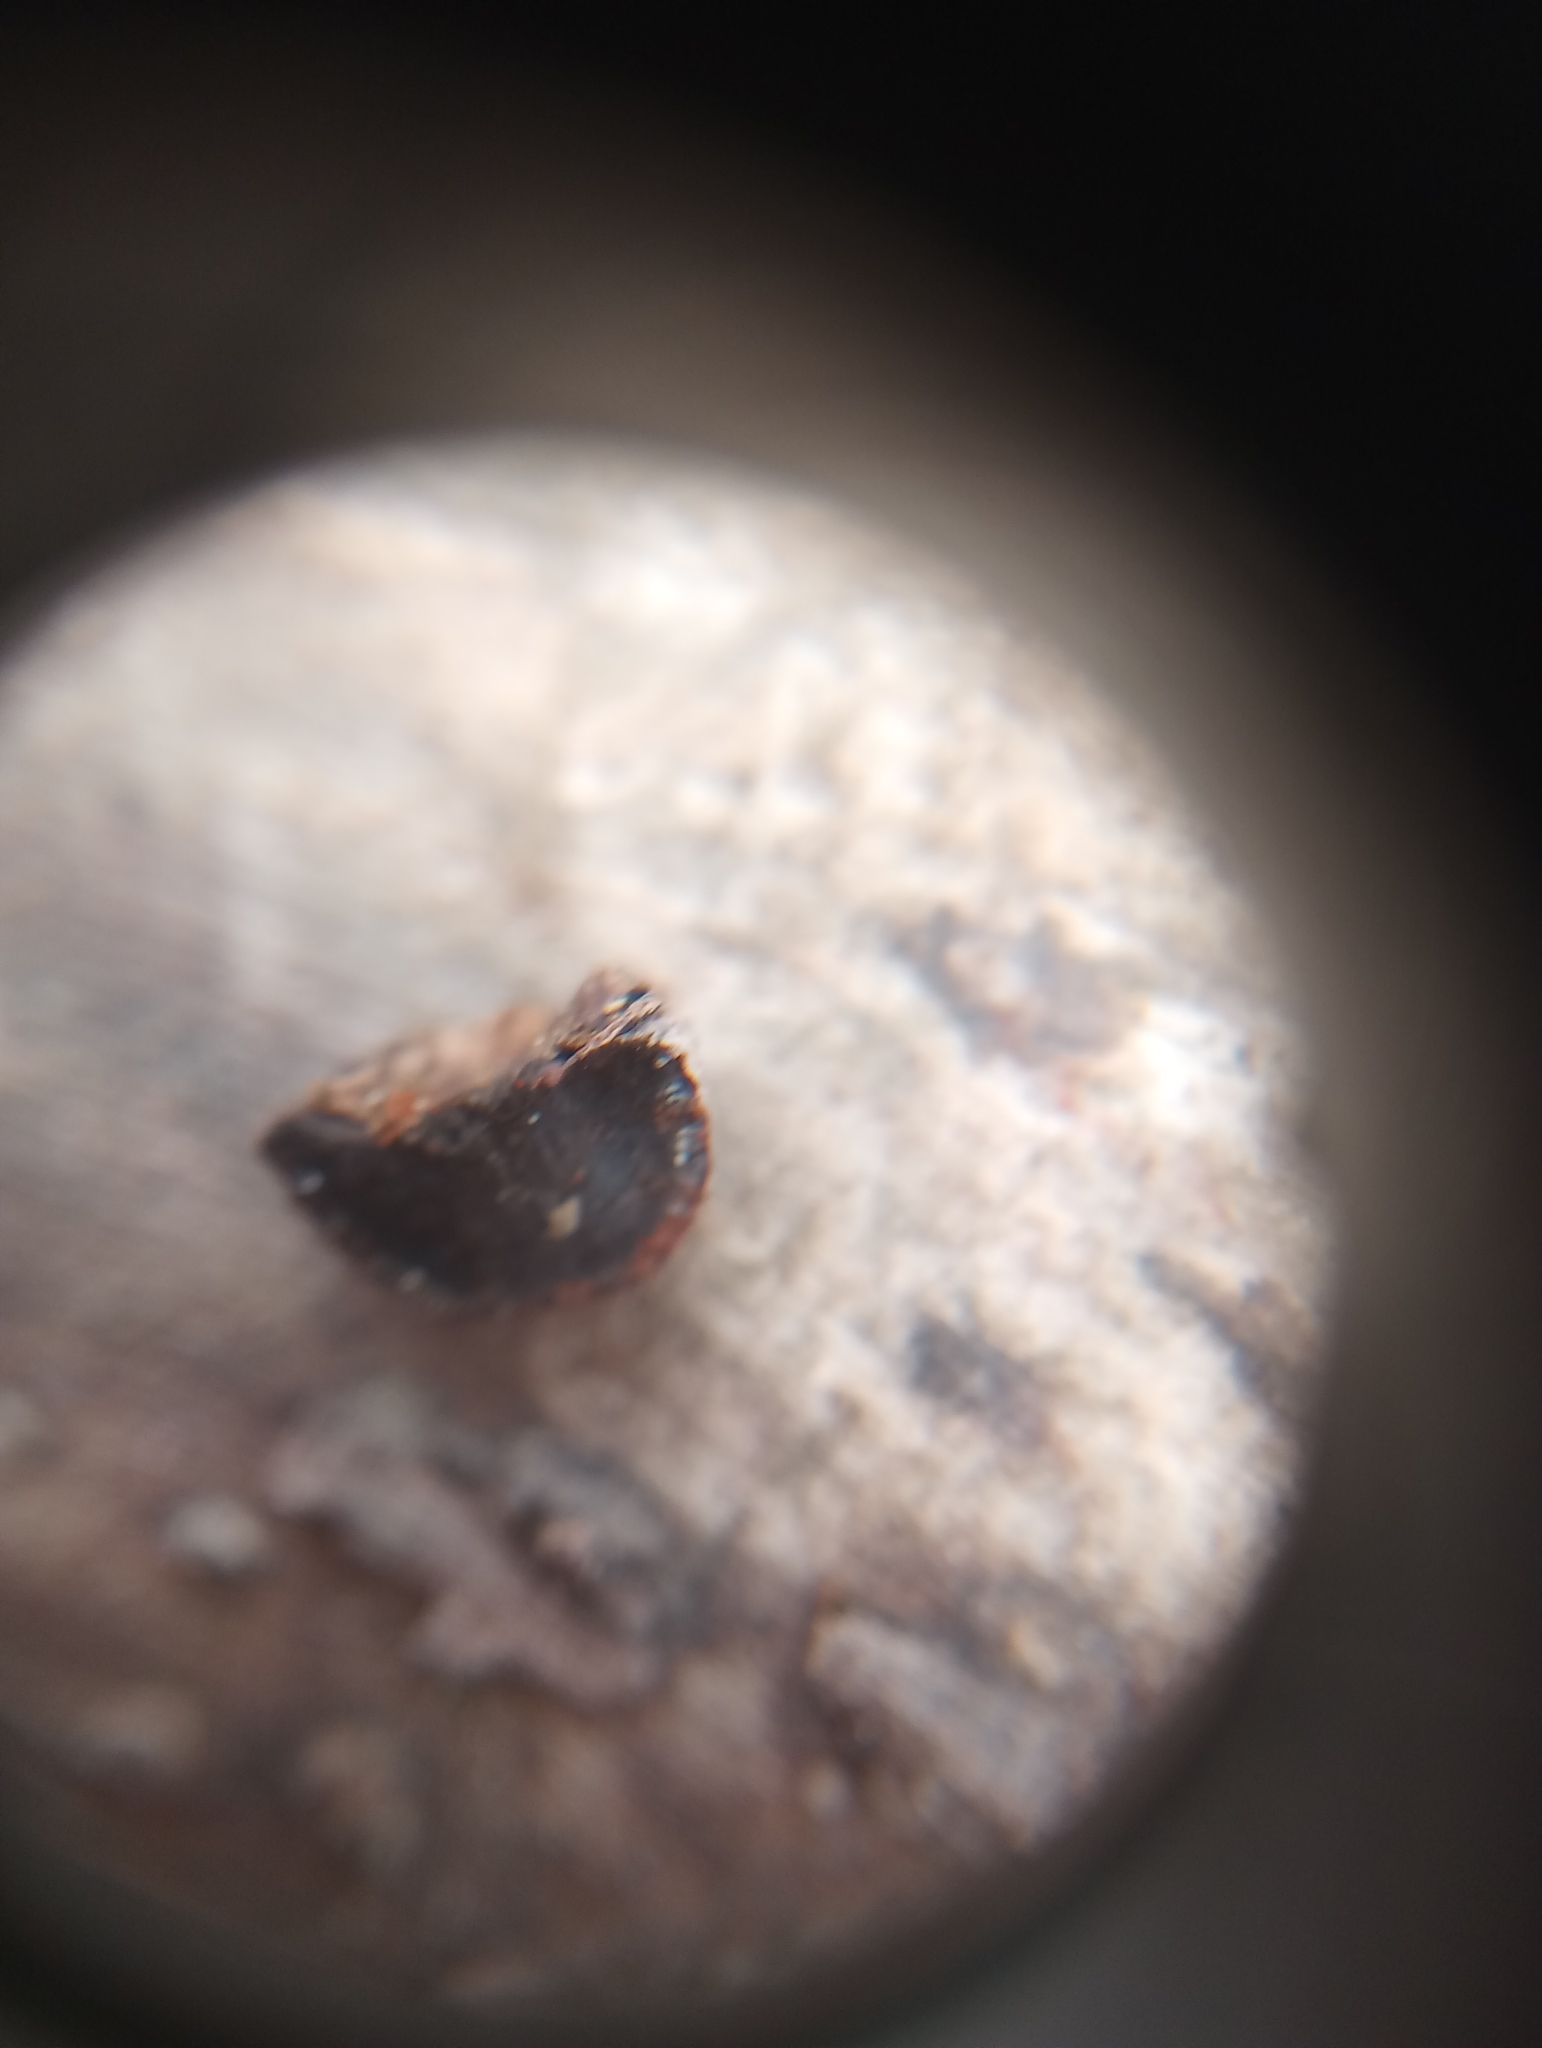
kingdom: Fungi
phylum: Ascomycota
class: Sordariomycetes
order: Xylariales
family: Hypoxylaceae
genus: Hypoxylon
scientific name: Hypoxylon howeanum
